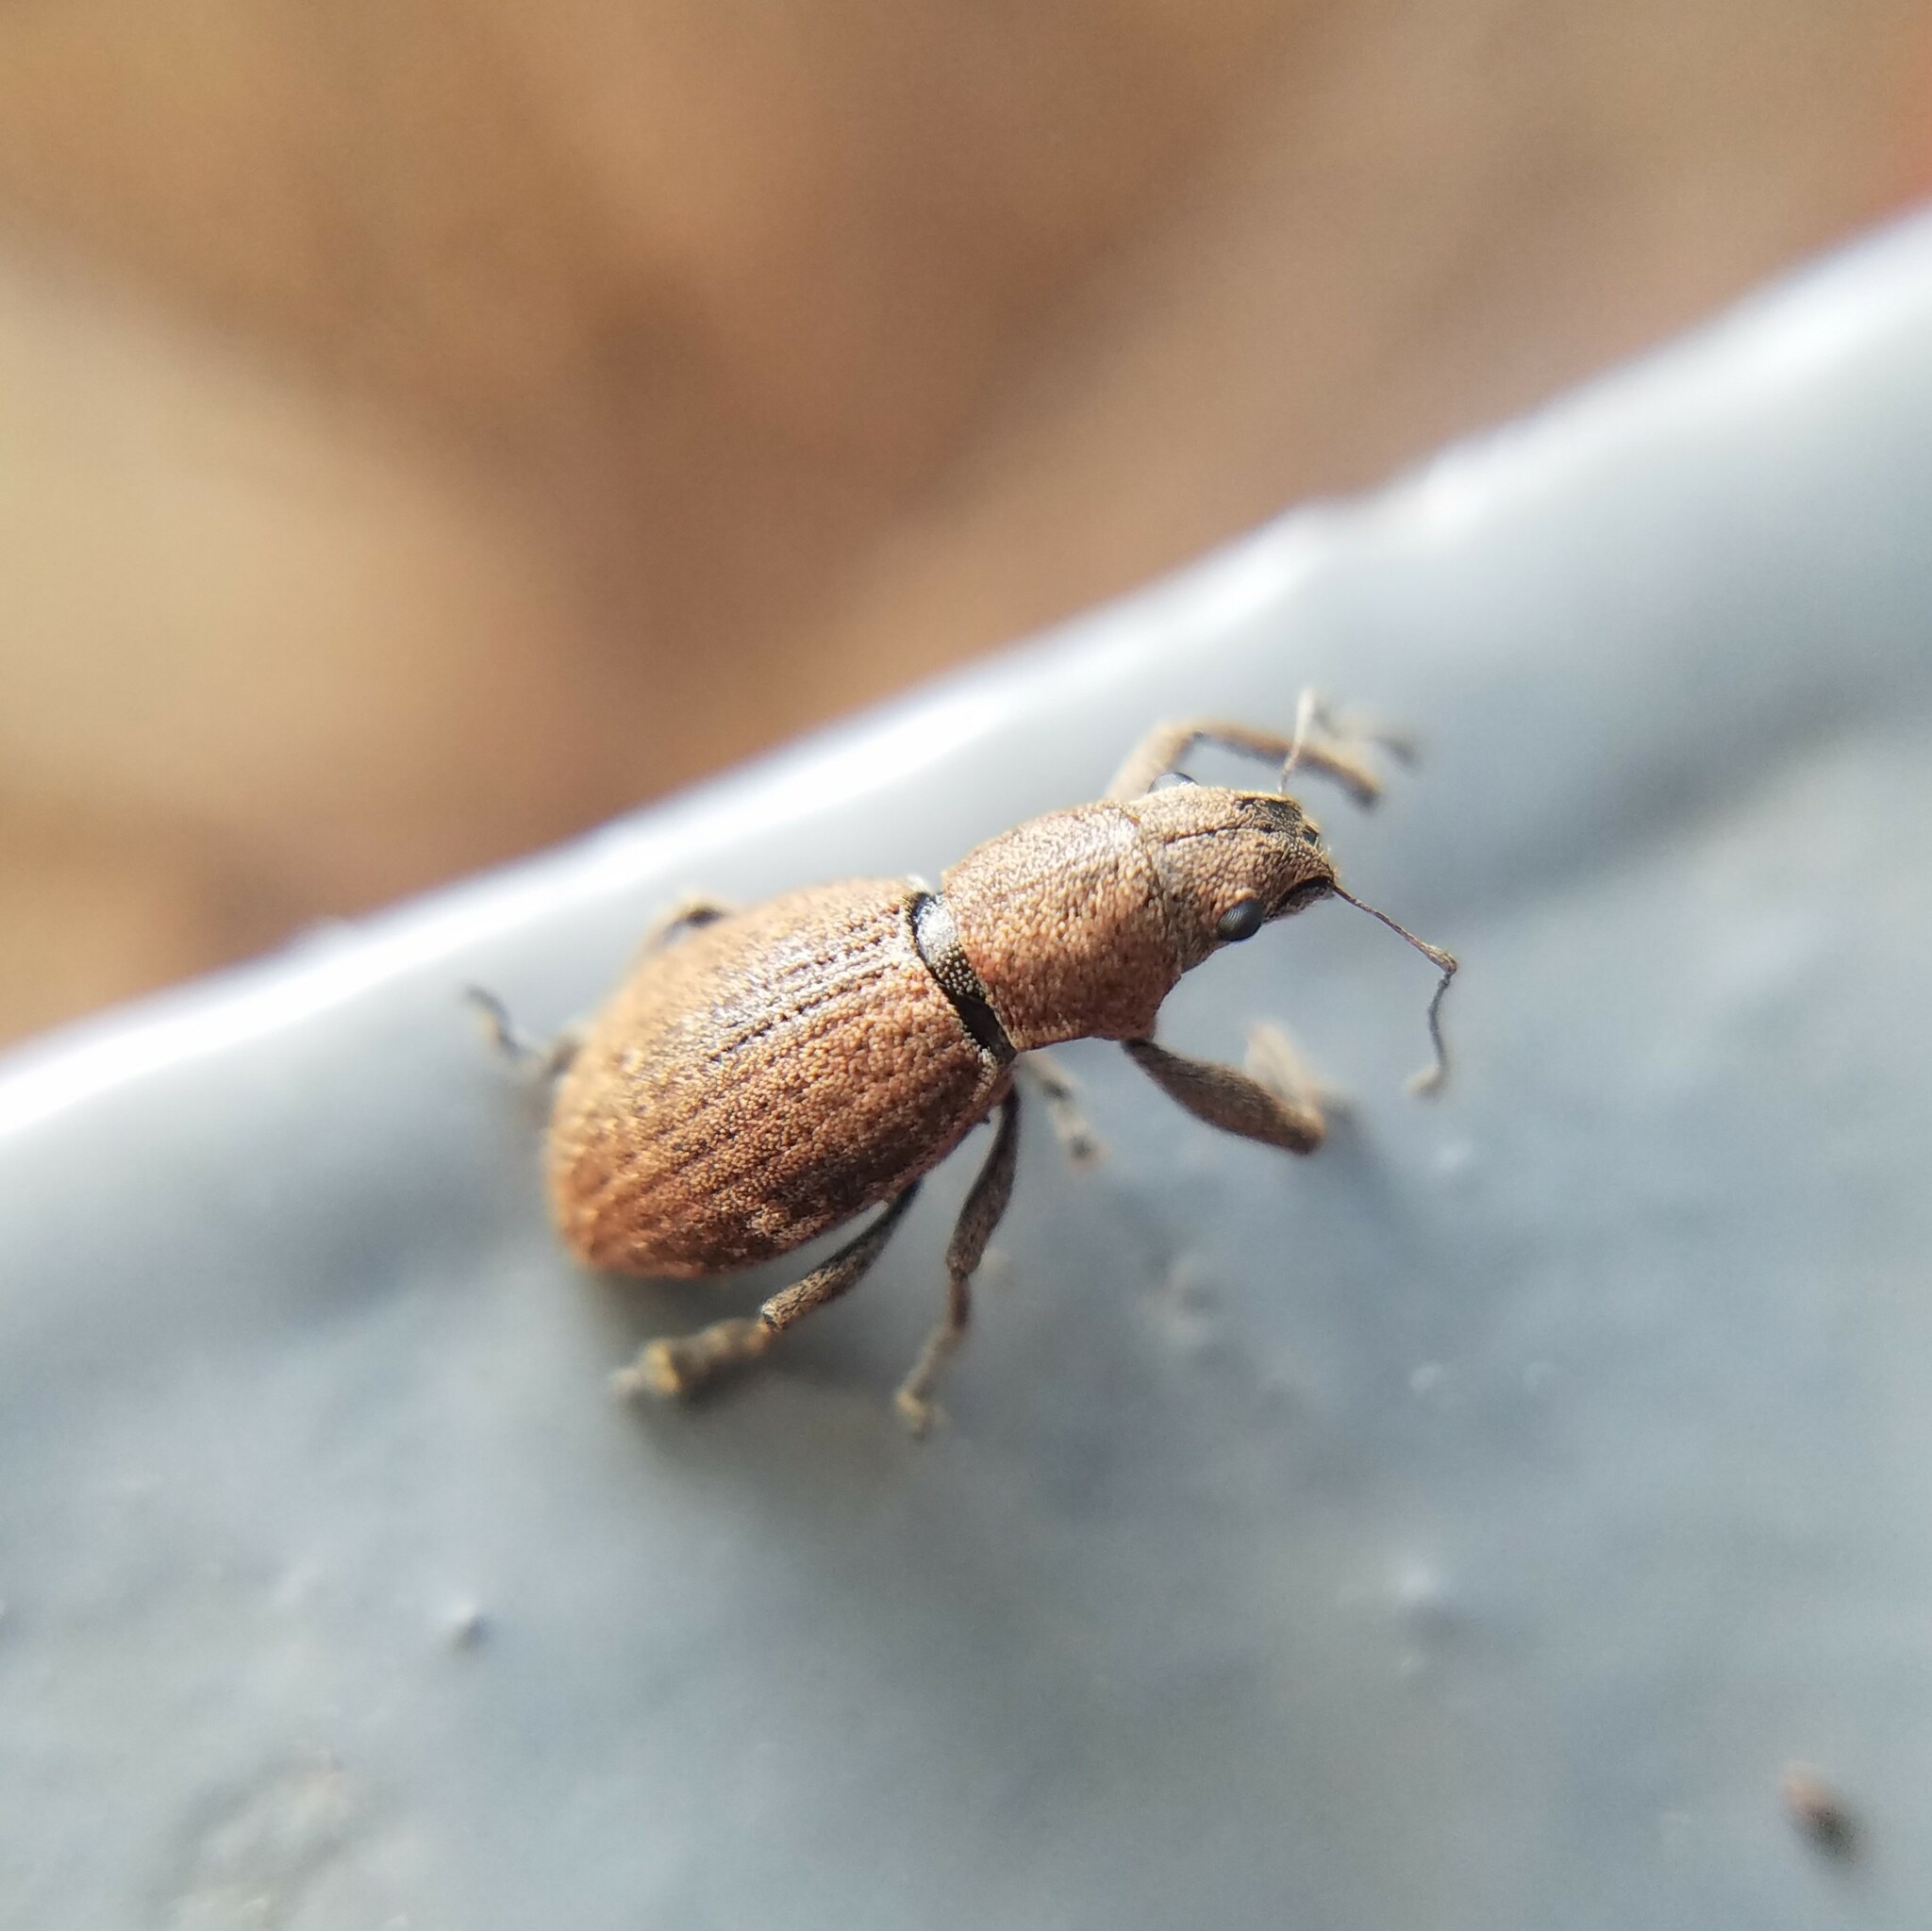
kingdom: Animalia
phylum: Arthropoda
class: Insecta
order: Coleoptera
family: Curculionidae
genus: Naupactus
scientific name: Naupactus cervinus
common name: Fuller rose beetle
